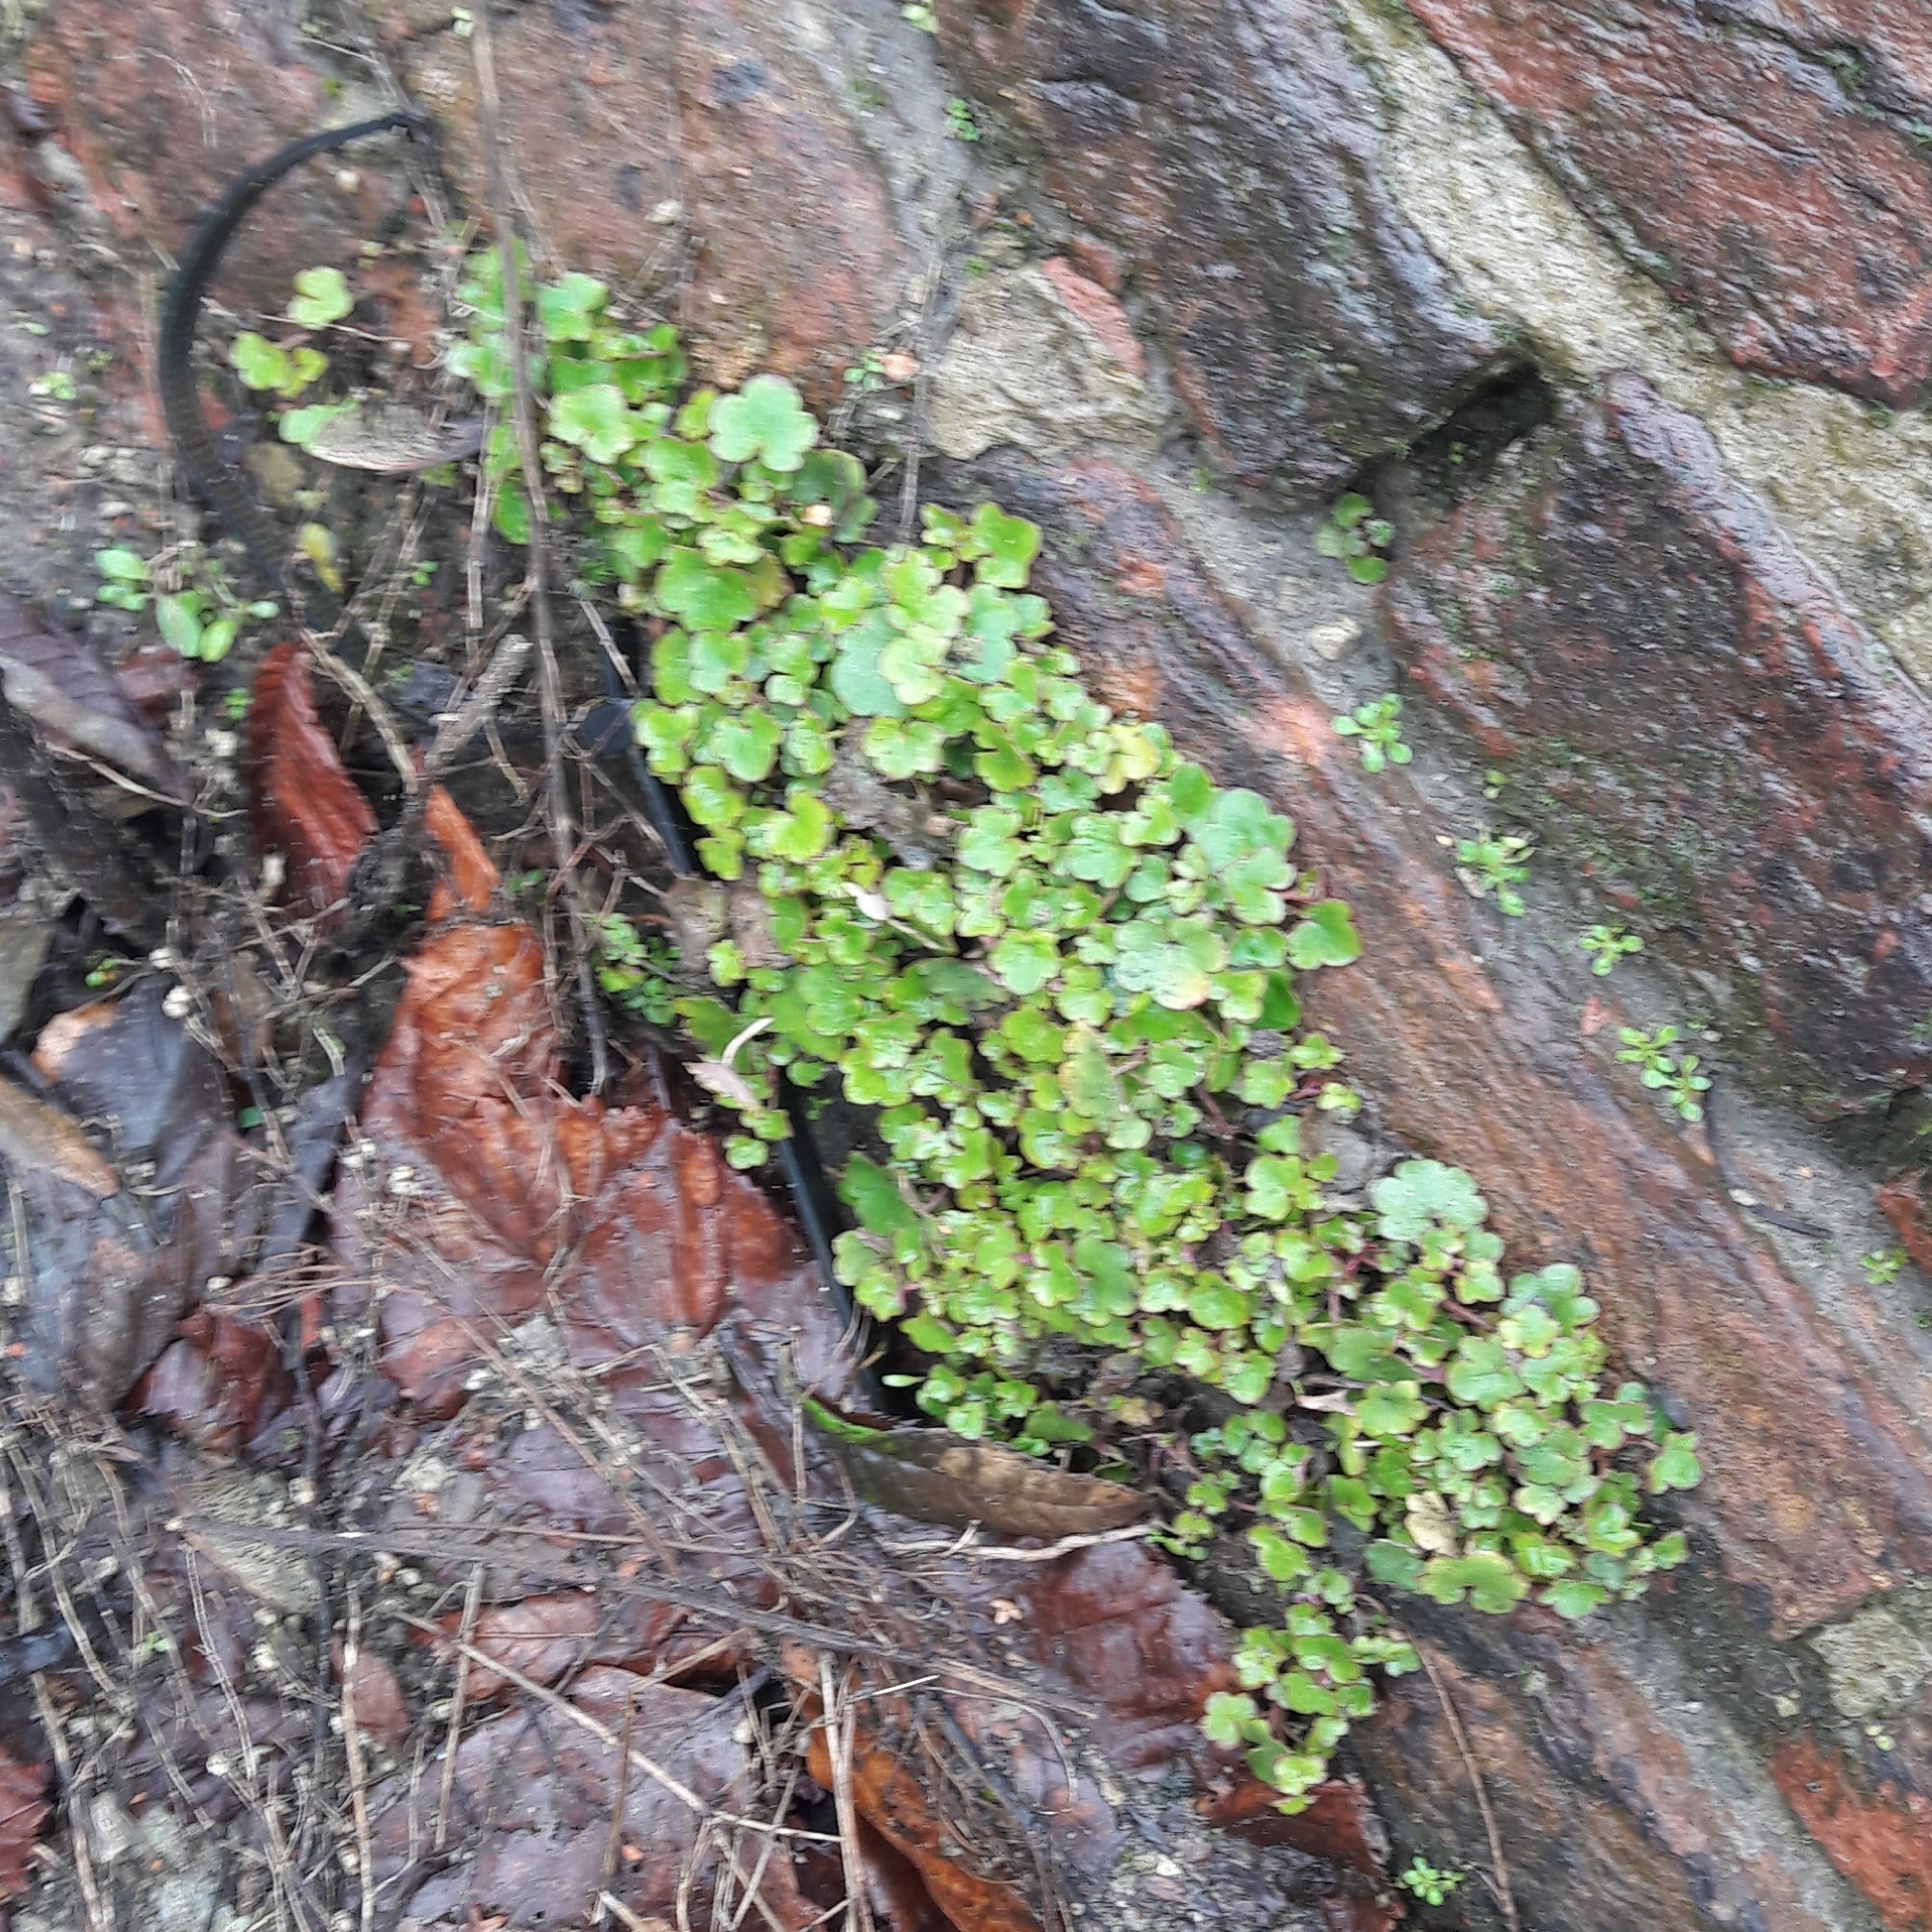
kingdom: Plantae
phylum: Tracheophyta
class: Magnoliopsida
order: Lamiales
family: Plantaginaceae
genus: Cymbalaria
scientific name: Cymbalaria muralis
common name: Ivy-leaved toadflax
